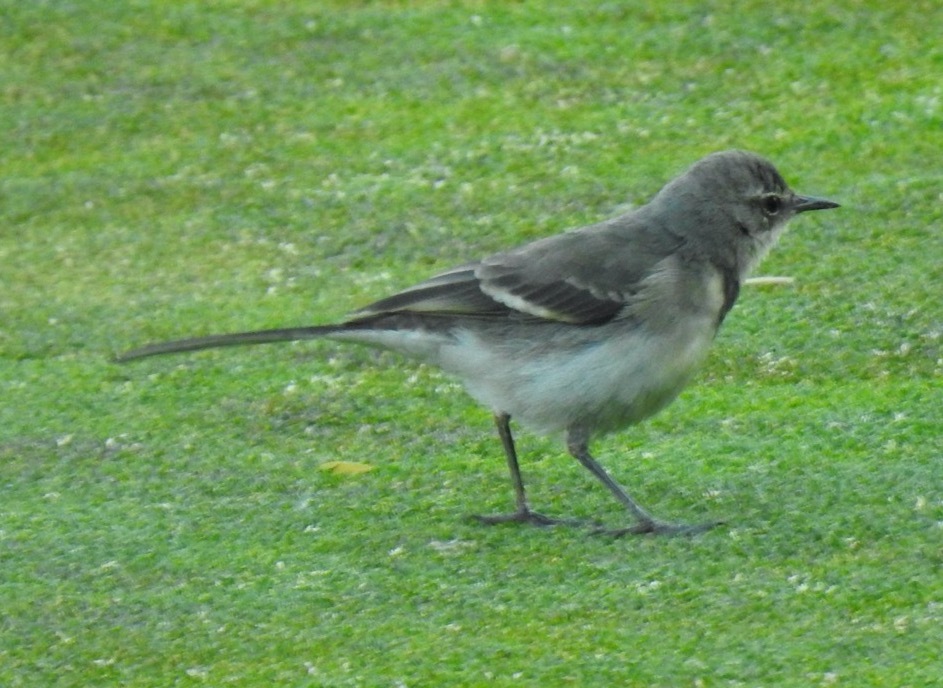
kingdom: Animalia
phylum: Chordata
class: Aves
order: Passeriformes
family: Motacillidae
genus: Motacilla
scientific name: Motacilla capensis
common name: Cape wagtail
